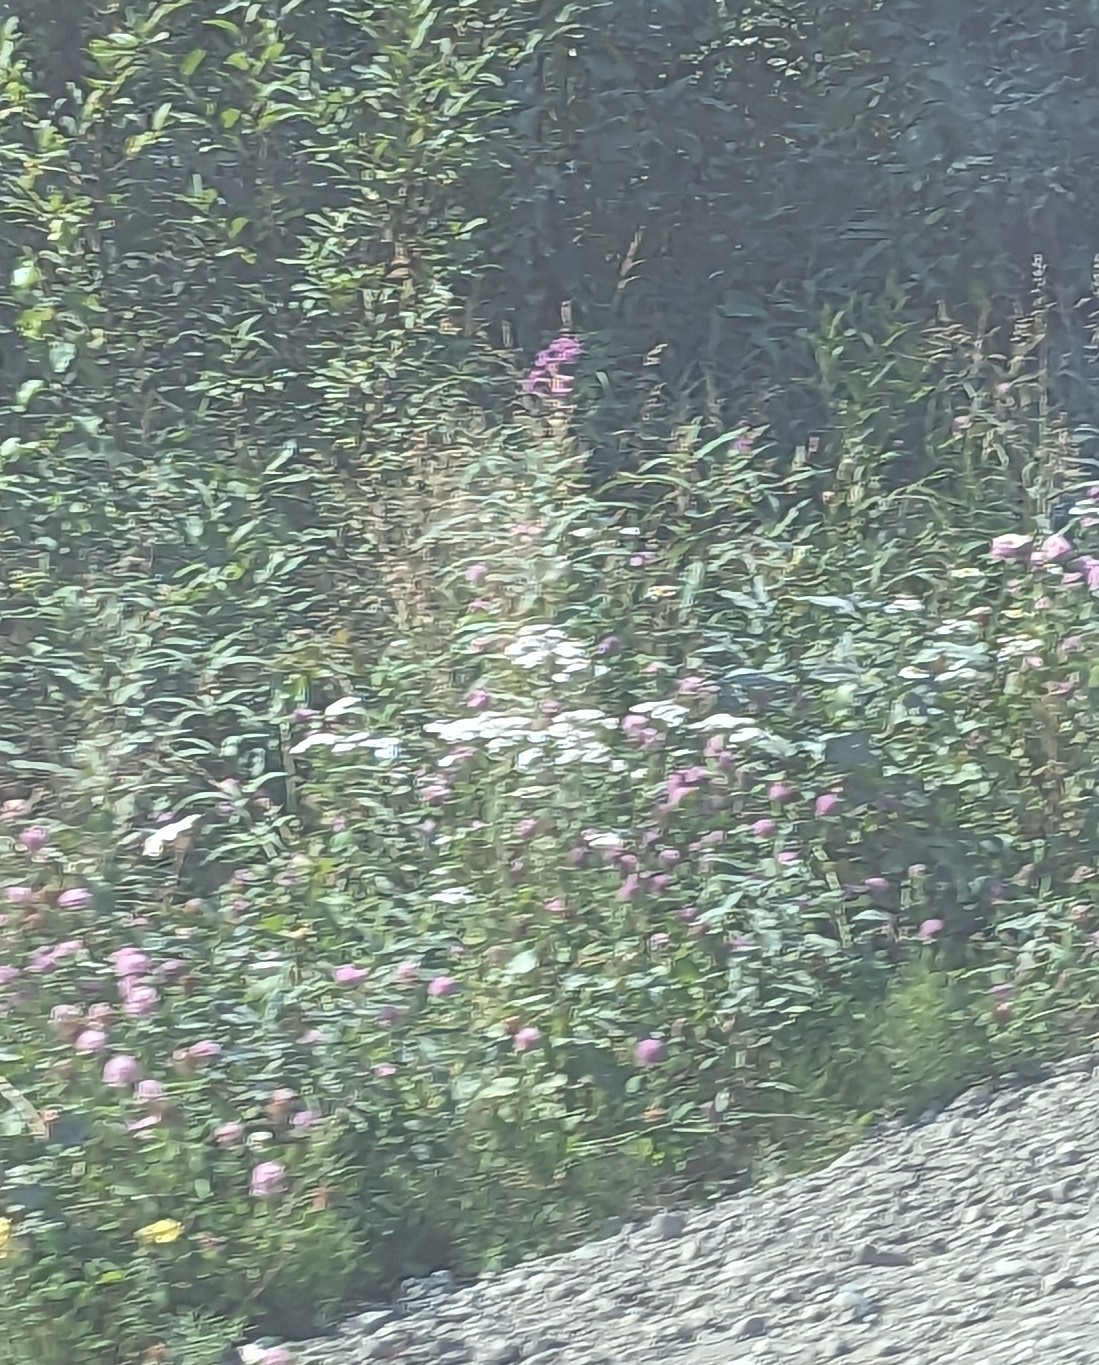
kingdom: Plantae
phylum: Tracheophyta
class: Magnoliopsida
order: Myrtales
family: Onagraceae
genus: Chamaenerion
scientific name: Chamaenerion angustifolium
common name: Fireweed
